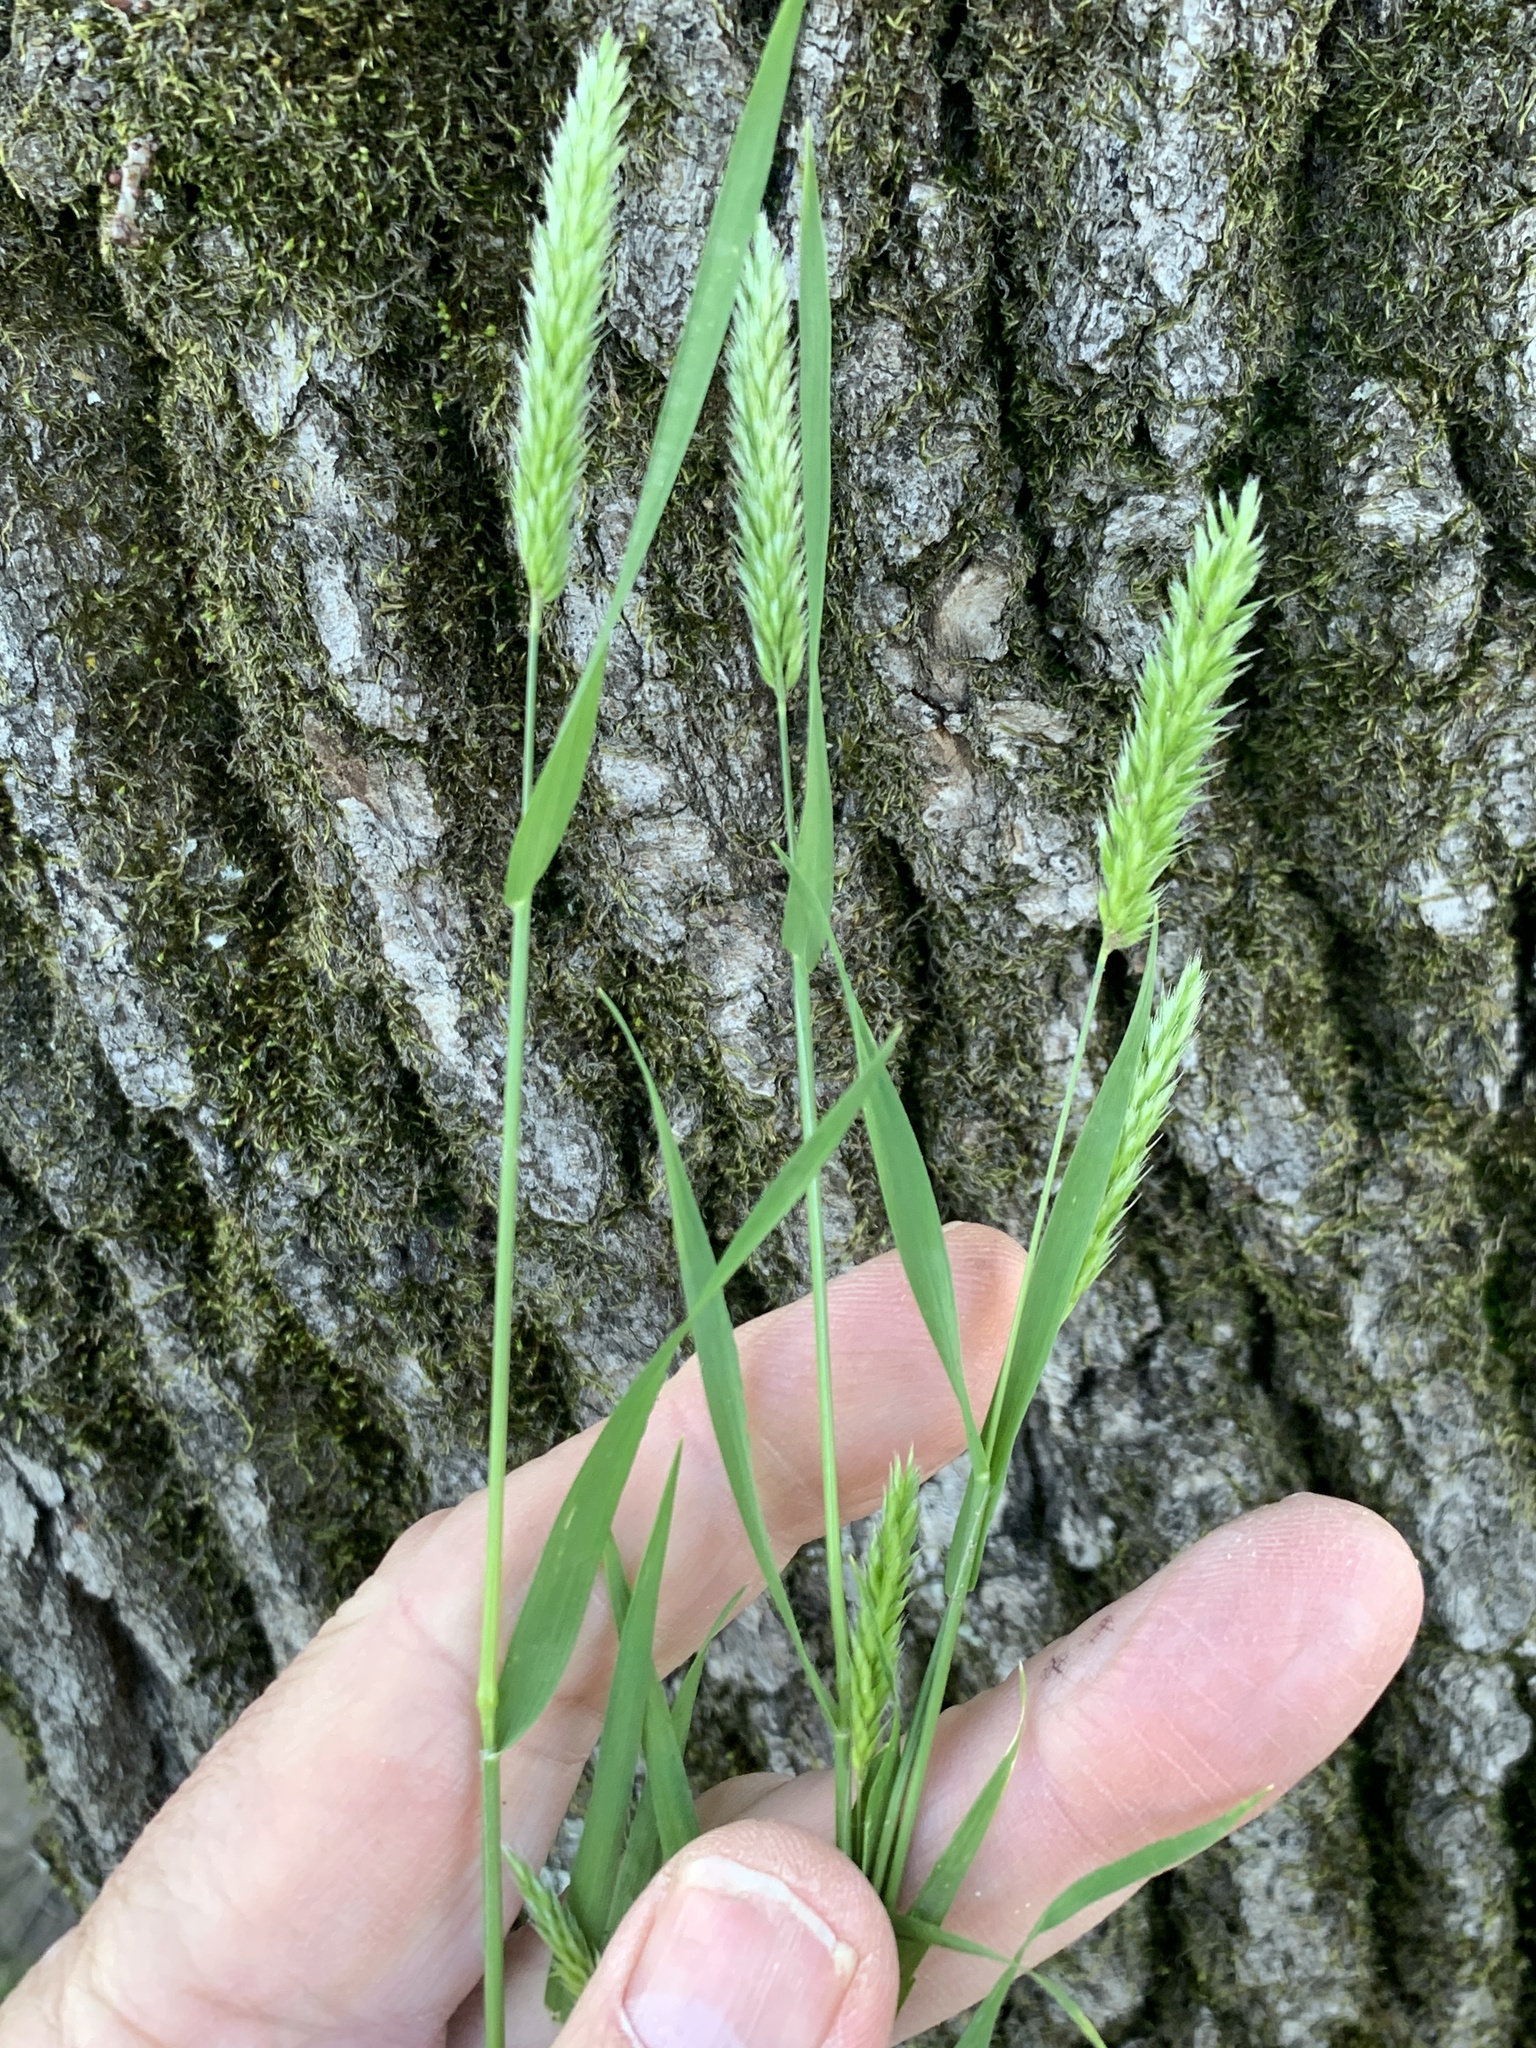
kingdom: Plantae
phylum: Tracheophyta
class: Liliopsida
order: Poales
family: Poaceae
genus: Rostraria
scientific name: Rostraria cristata
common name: Mediterranean hair-grass
